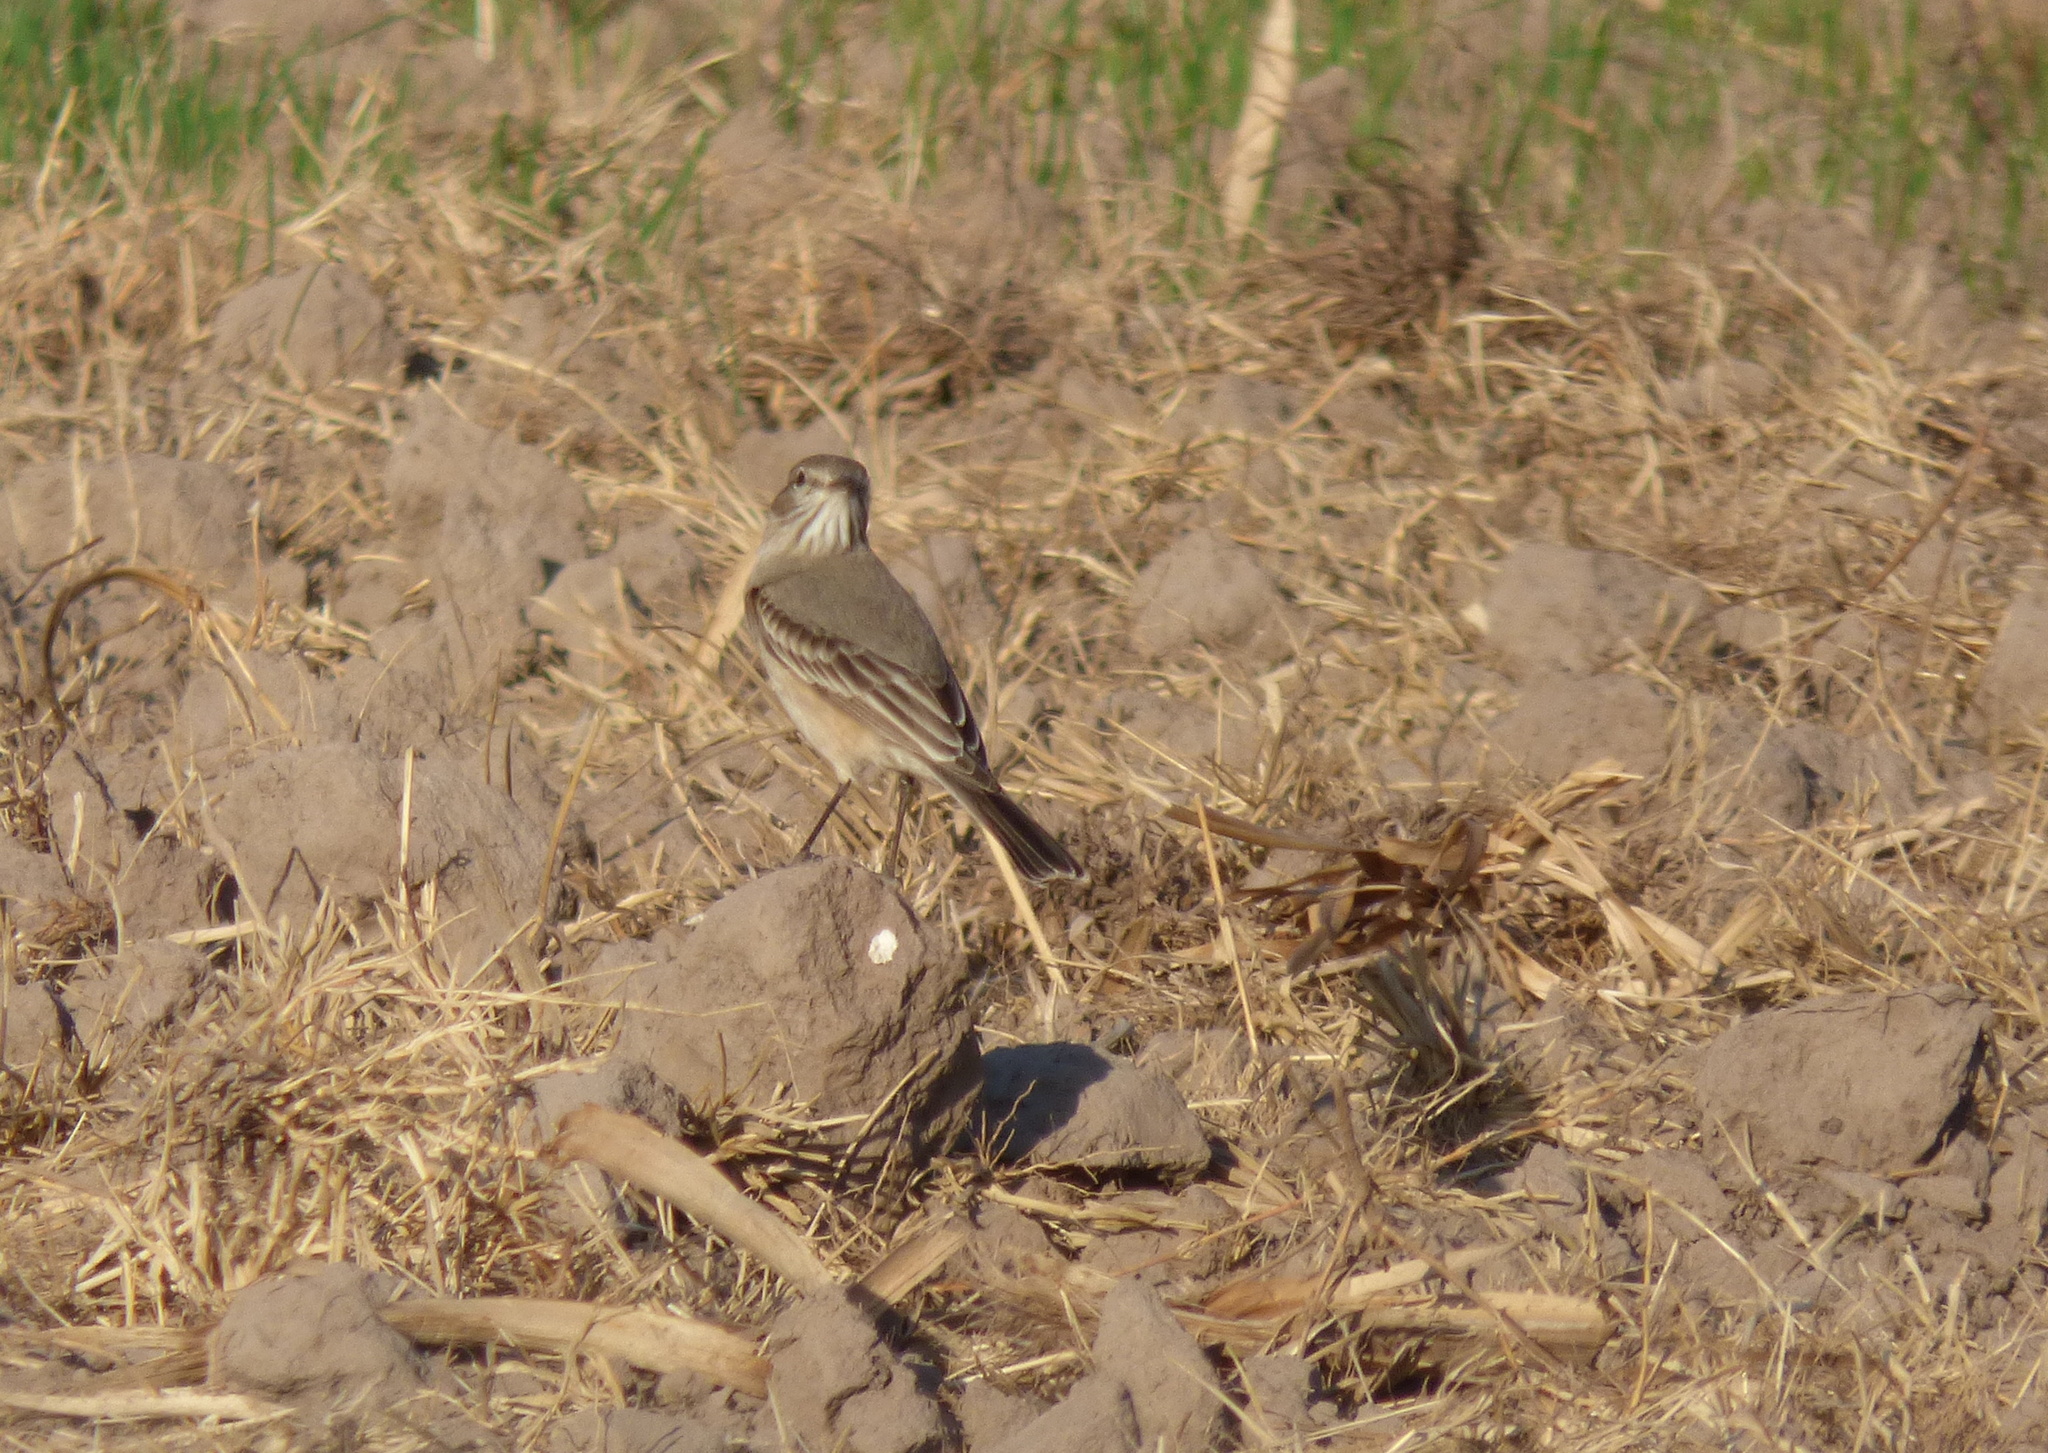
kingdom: Animalia
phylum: Chordata
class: Aves
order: Passeriformes
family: Tyrannidae
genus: Agriornis
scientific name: Agriornis murinus
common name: Lesser shrike-tyrant
